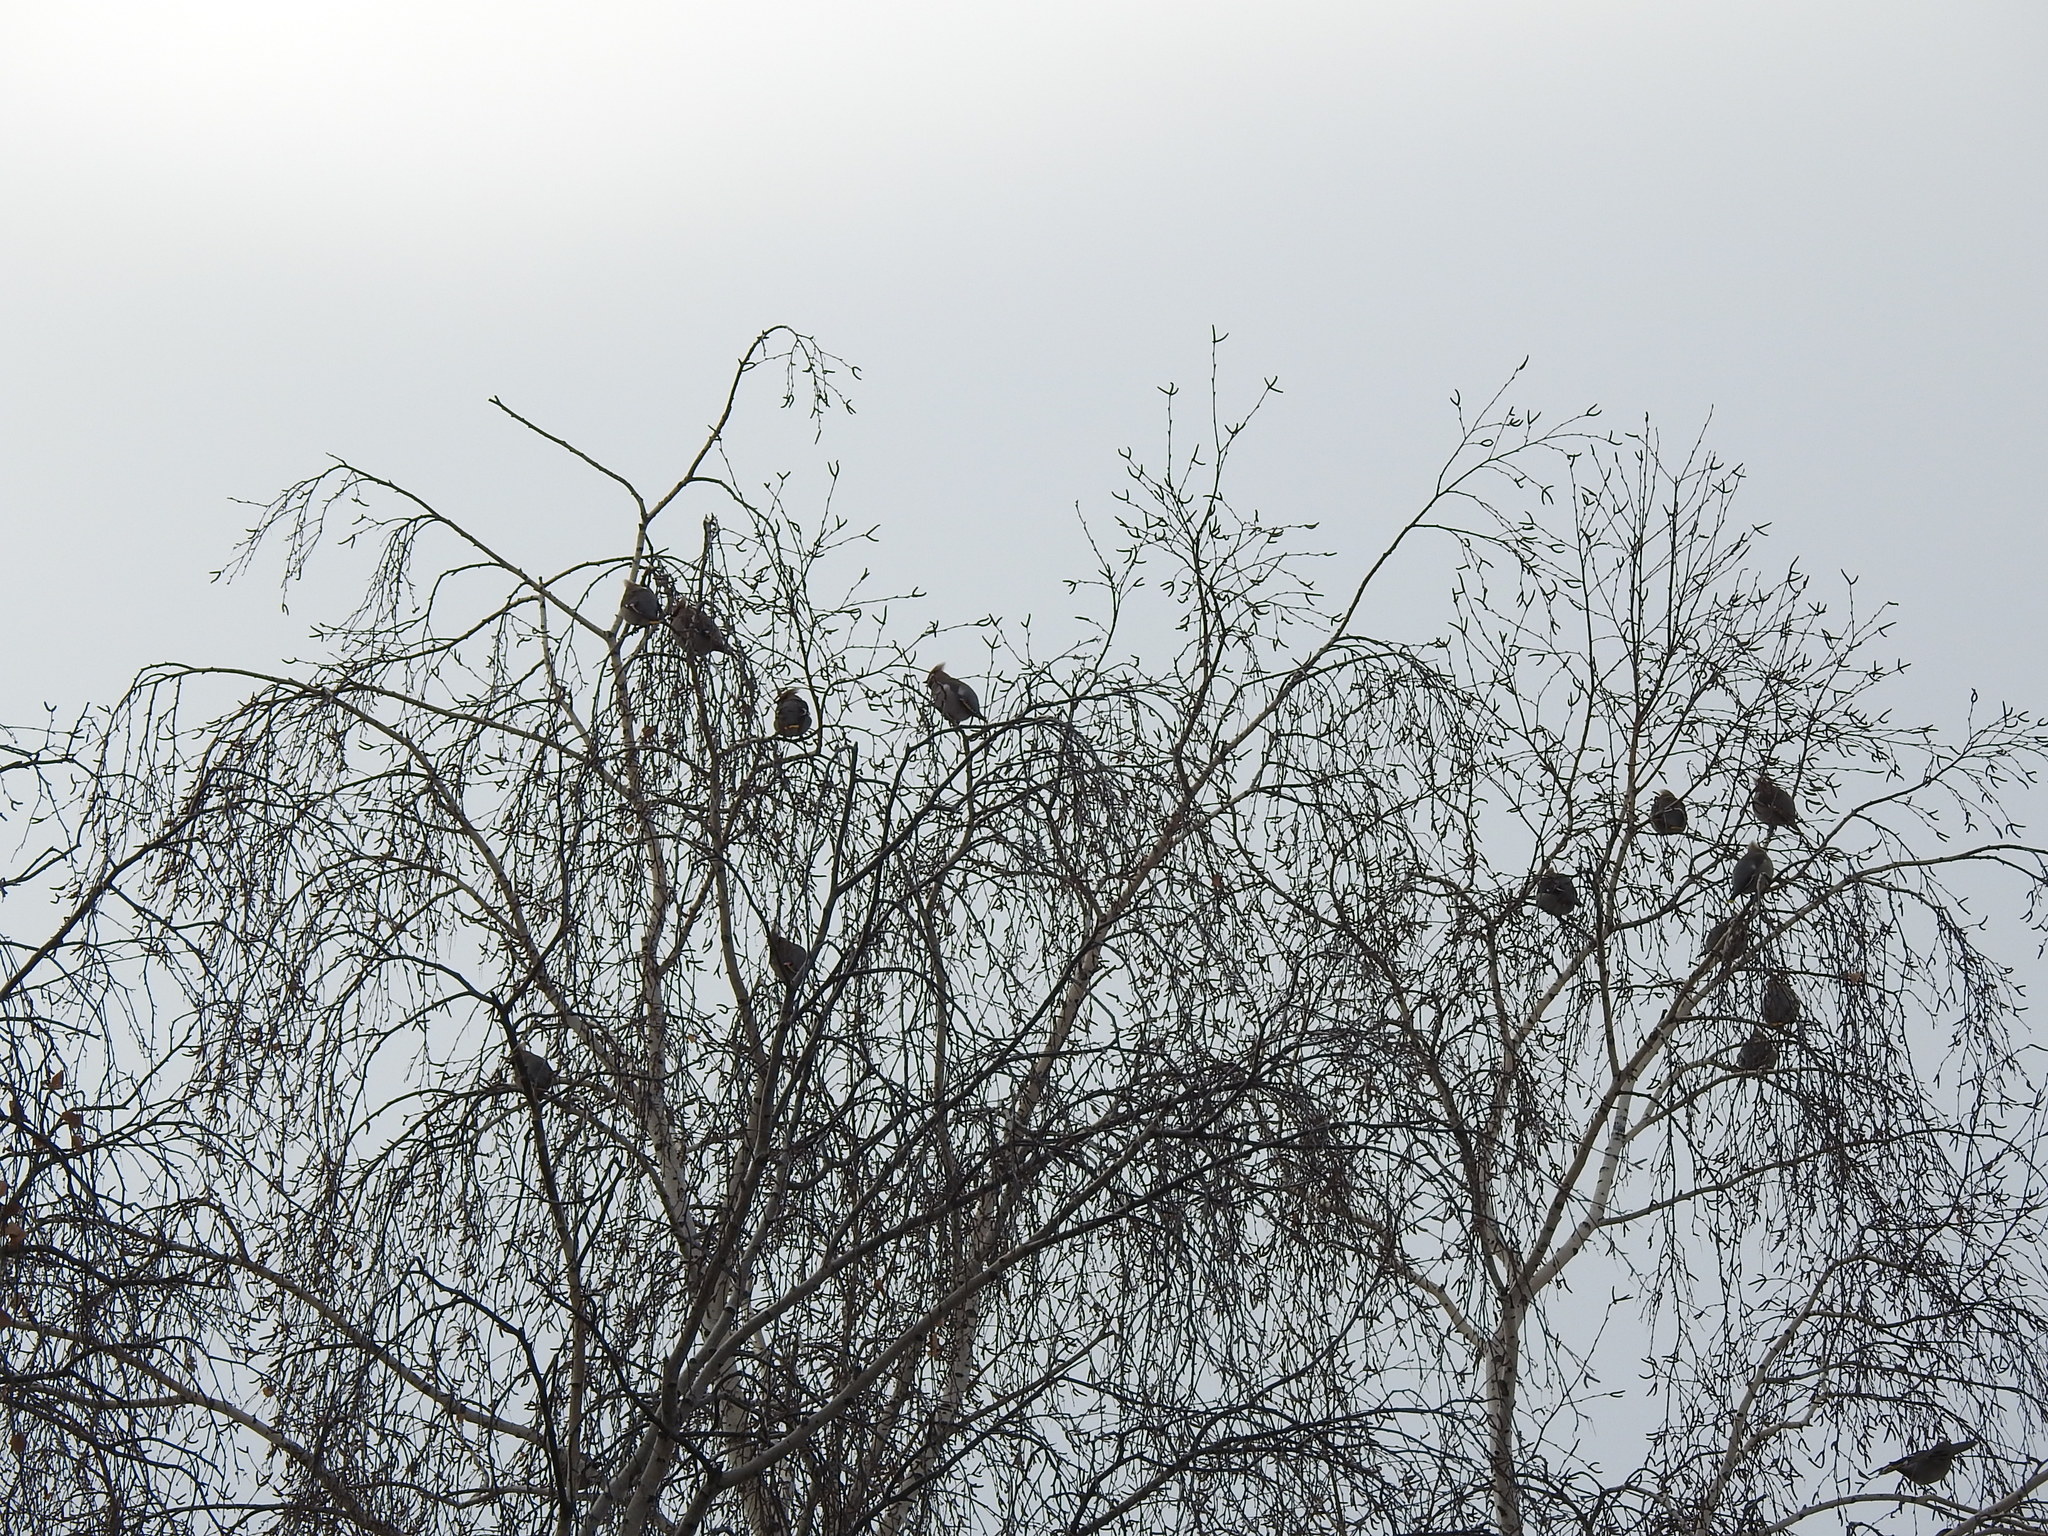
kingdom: Animalia
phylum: Chordata
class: Aves
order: Passeriformes
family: Bombycillidae
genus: Bombycilla
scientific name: Bombycilla garrulus
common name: Bohemian waxwing
